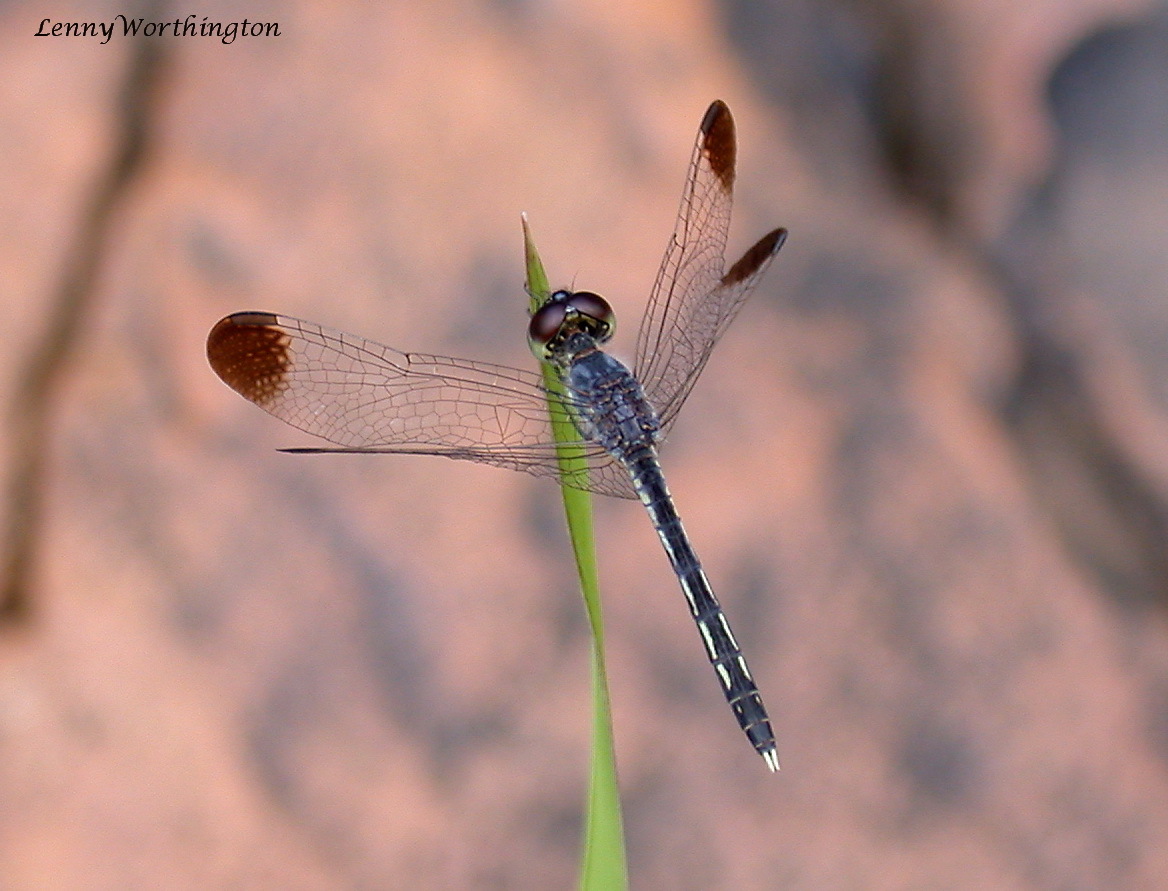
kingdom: Animalia
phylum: Arthropoda
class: Insecta
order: Odonata
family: Libellulidae
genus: Diplacodes
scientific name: Diplacodes nebulosa
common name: Black-tipped percher
